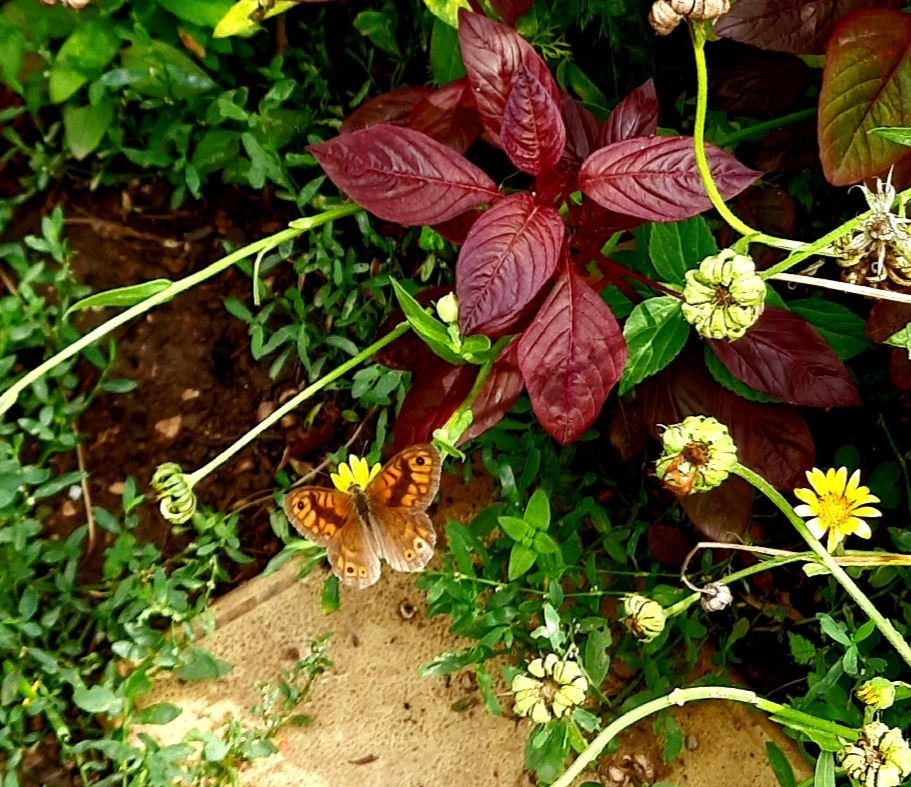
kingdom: Animalia
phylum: Arthropoda
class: Insecta
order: Lepidoptera
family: Nymphalidae
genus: Pararge
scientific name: Pararge Lasiommata megera
